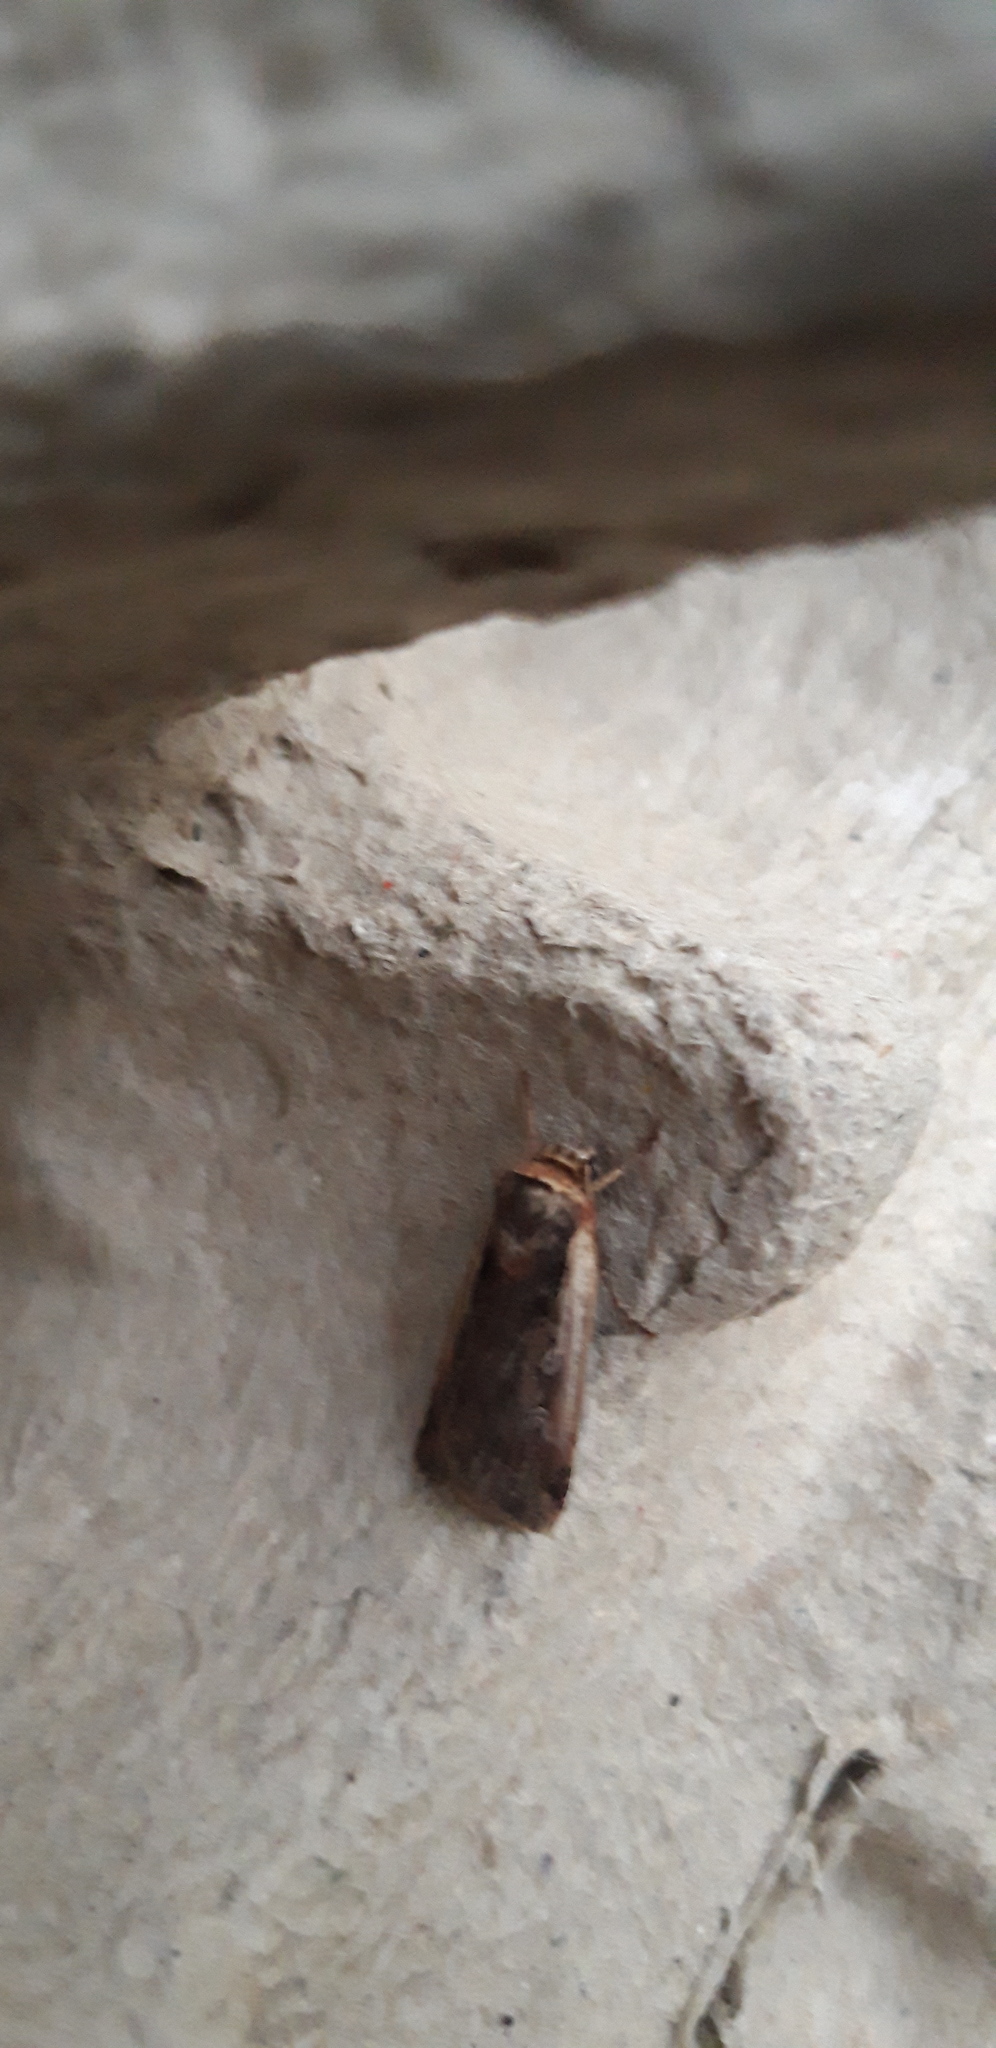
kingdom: Animalia
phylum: Arthropoda
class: Insecta
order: Lepidoptera
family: Noctuidae
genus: Ochropleura
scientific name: Ochropleura plecta
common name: Flame shoulder
